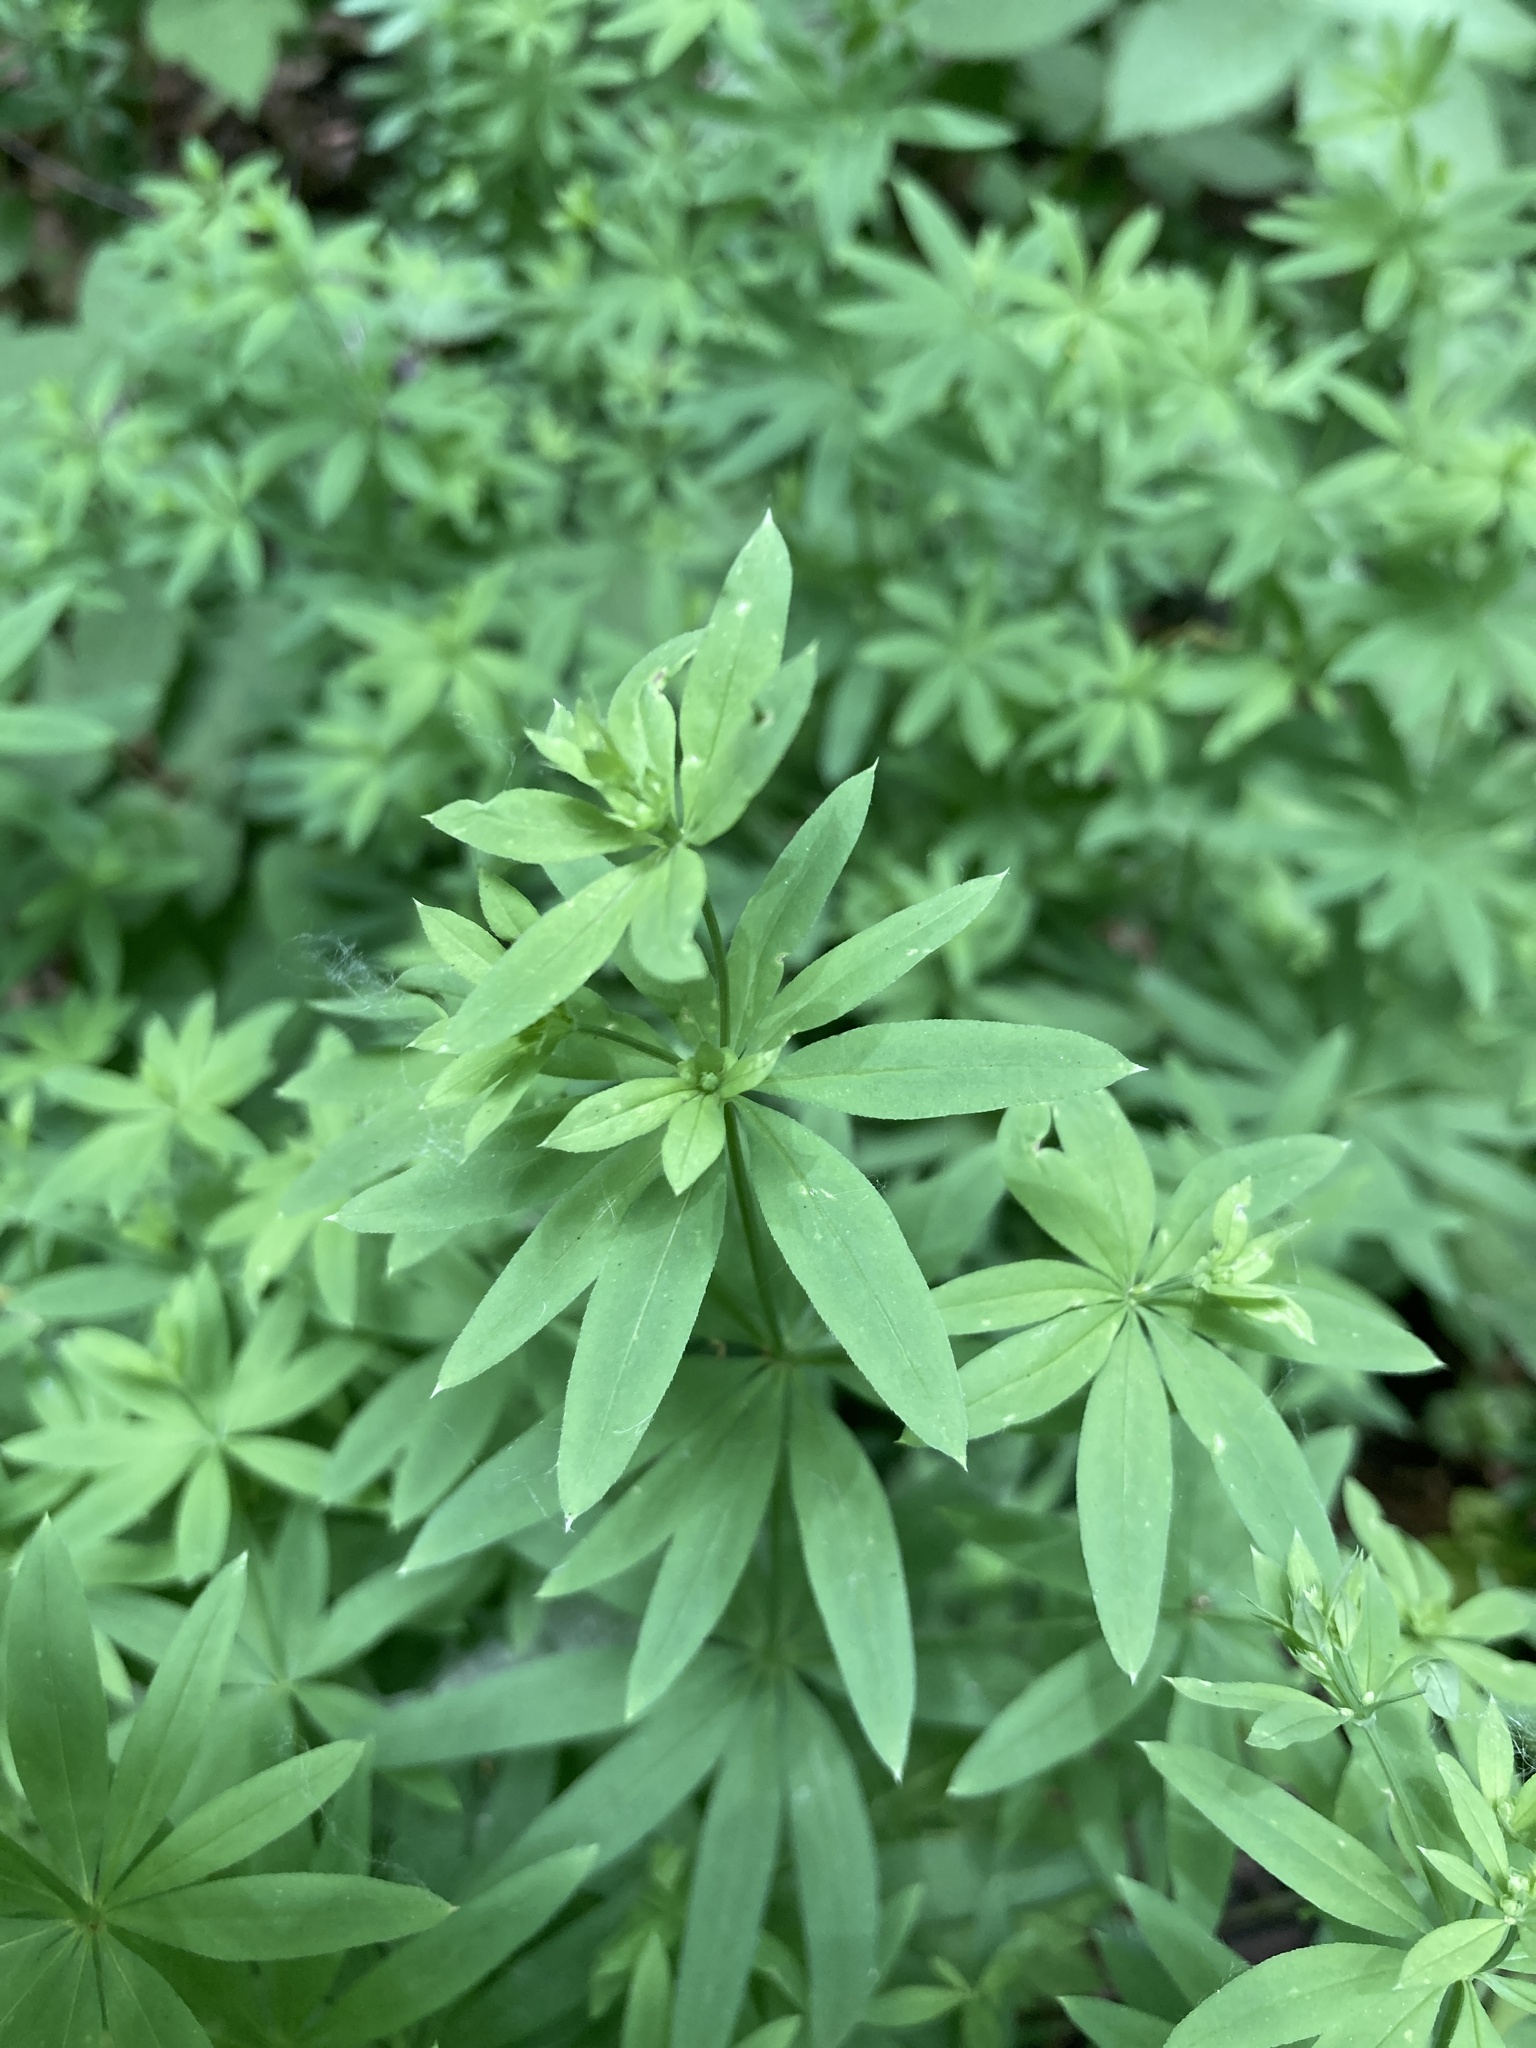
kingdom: Plantae
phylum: Tracheophyta
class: Magnoliopsida
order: Gentianales
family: Rubiaceae
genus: Galium
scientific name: Galium intermedium
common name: Bedstraw
